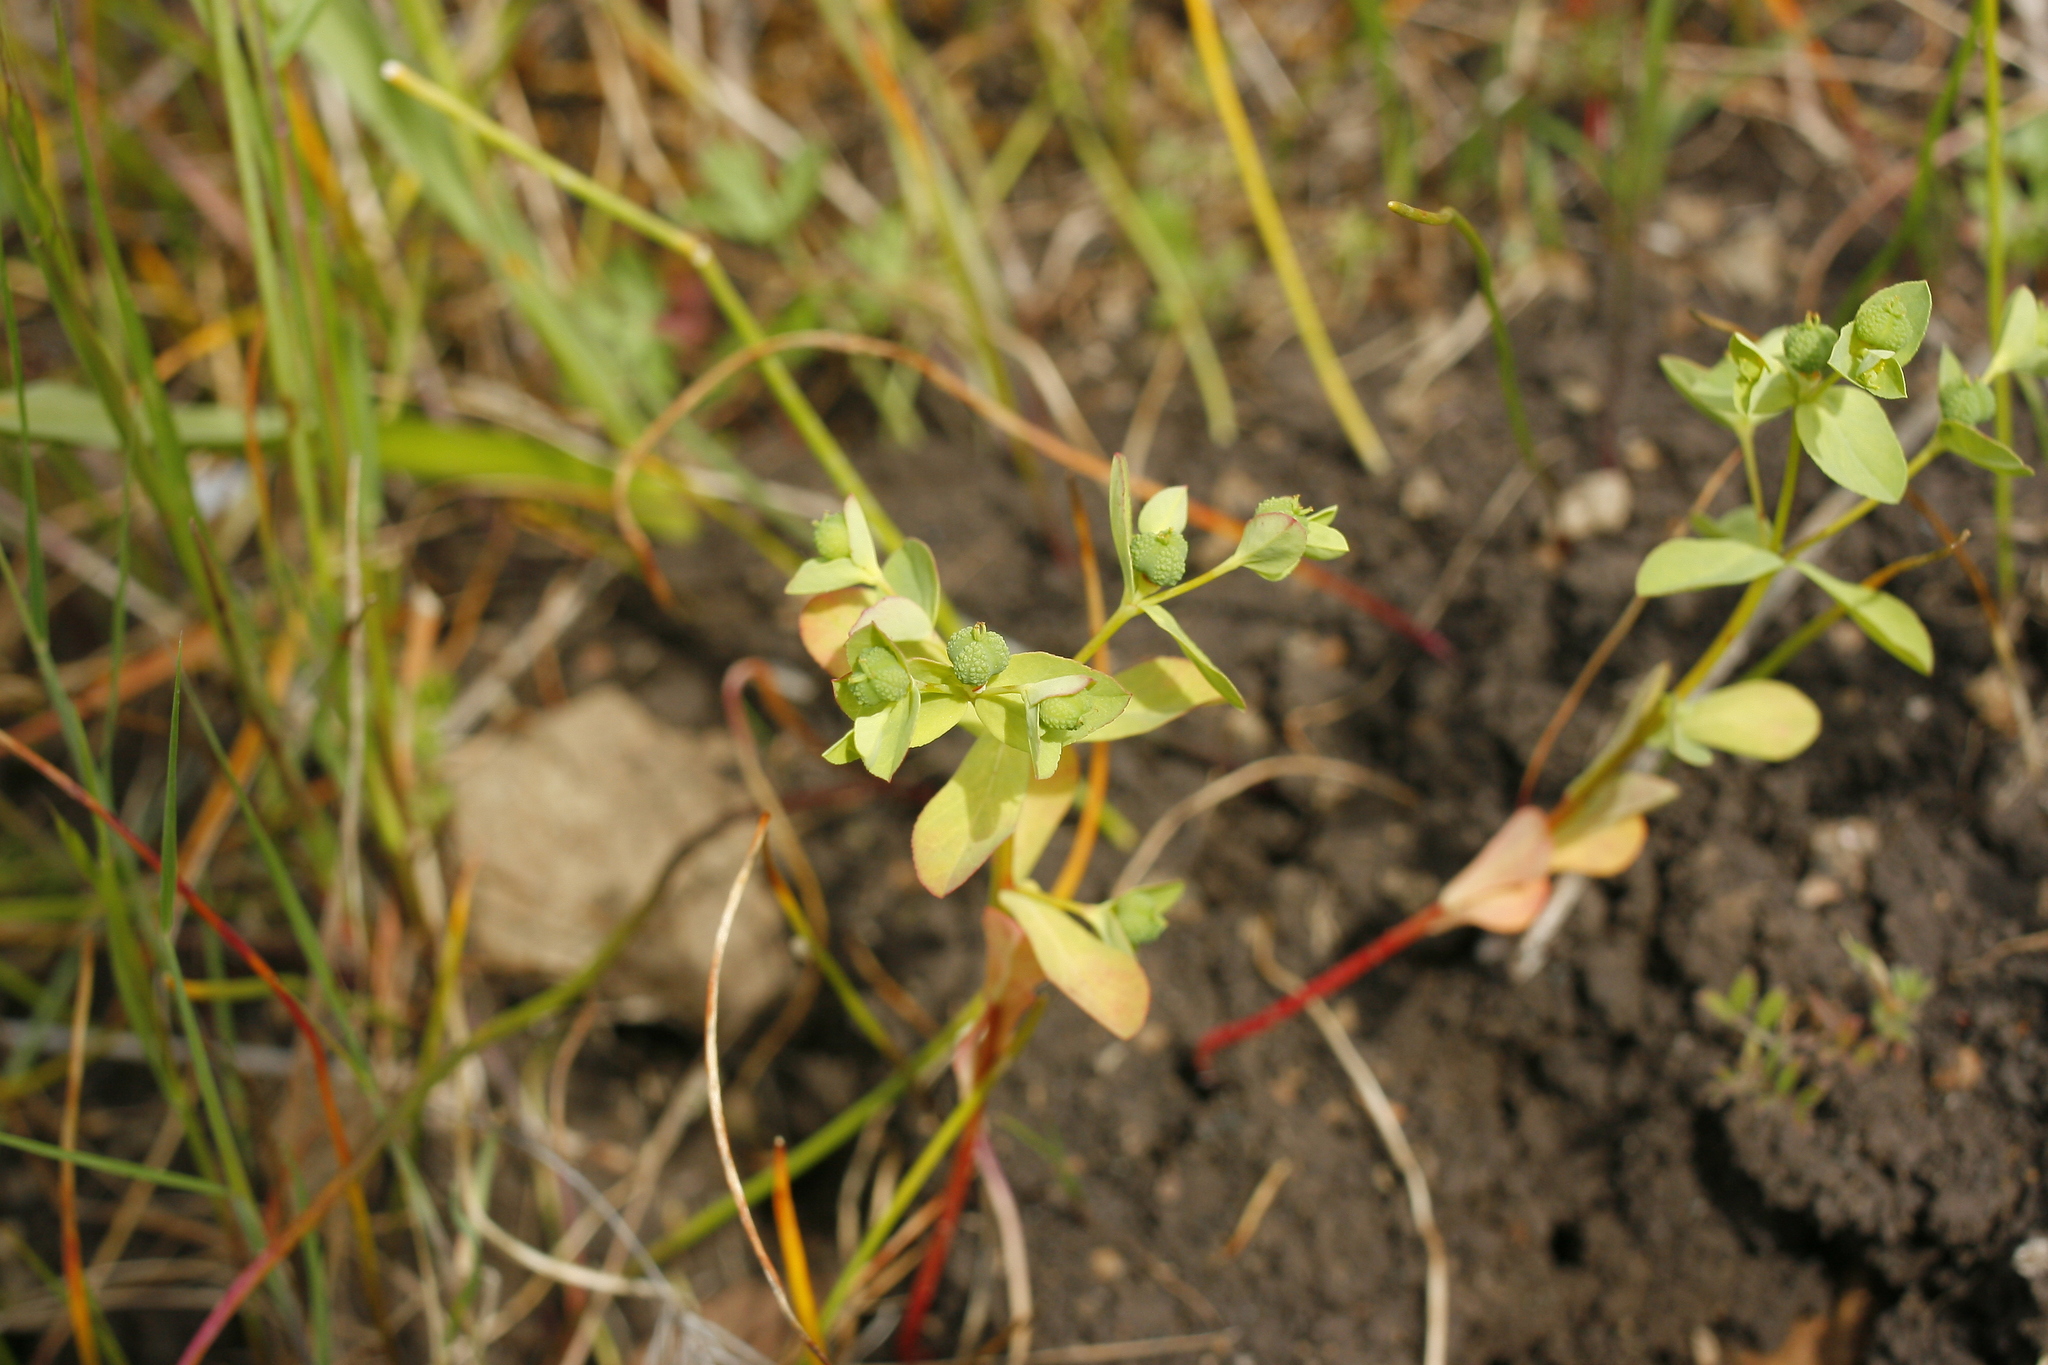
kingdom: Plantae
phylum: Tracheophyta
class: Magnoliopsida
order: Malpighiales
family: Euphorbiaceae
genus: Euphorbia
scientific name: Euphorbia spathulata
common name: Blunt spurge
